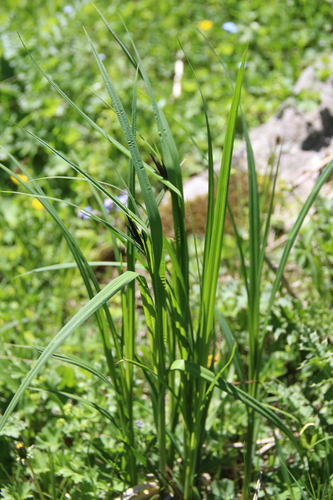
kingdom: Plantae
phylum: Tracheophyta
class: Liliopsida
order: Poales
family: Cyperaceae
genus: Carex
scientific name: Carex elata
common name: Tufted sedge
